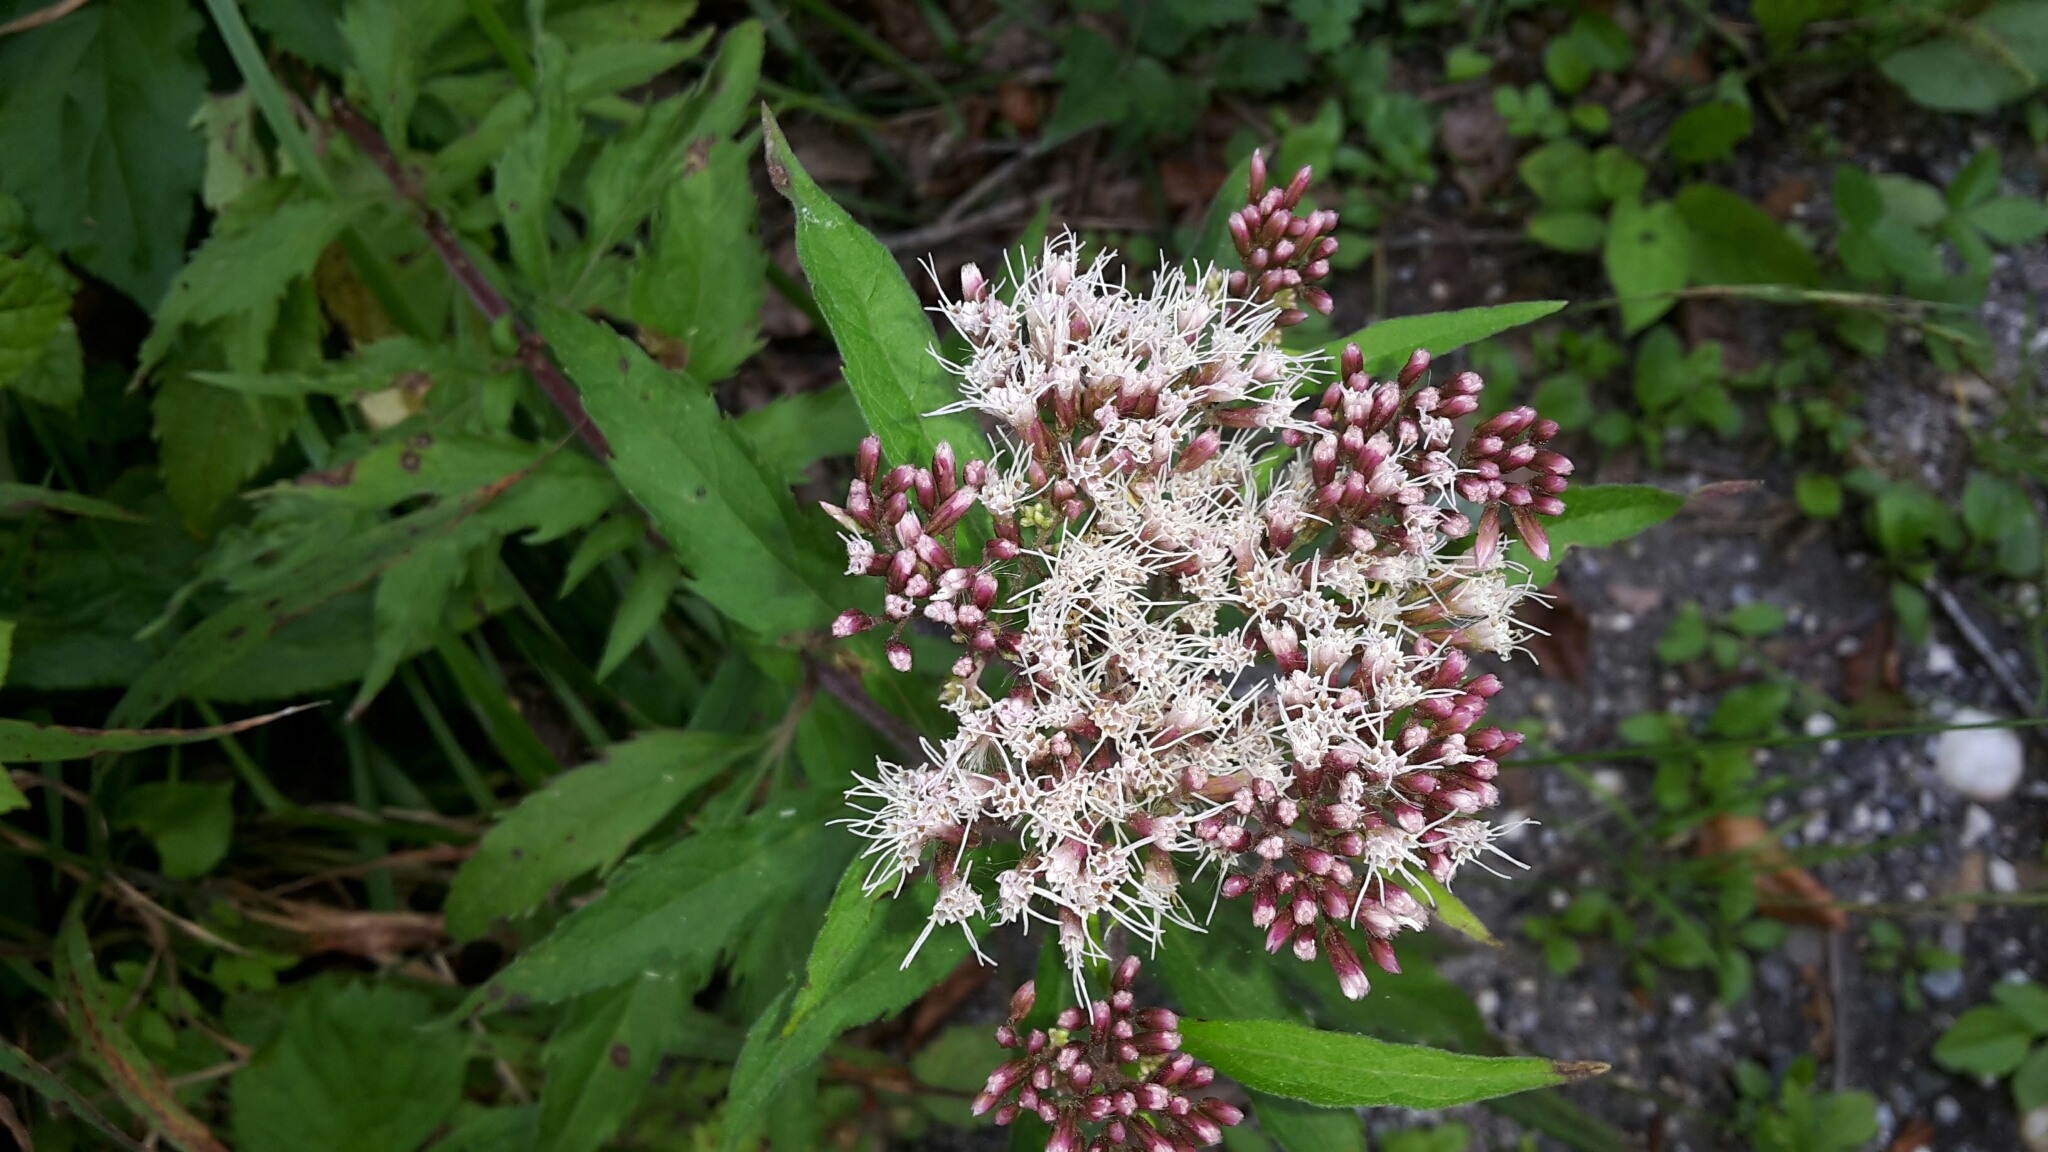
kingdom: Plantae
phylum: Tracheophyta
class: Magnoliopsida
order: Asterales
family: Asteraceae
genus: Eupatorium
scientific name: Eupatorium cannabinum
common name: Hemp-agrimony
